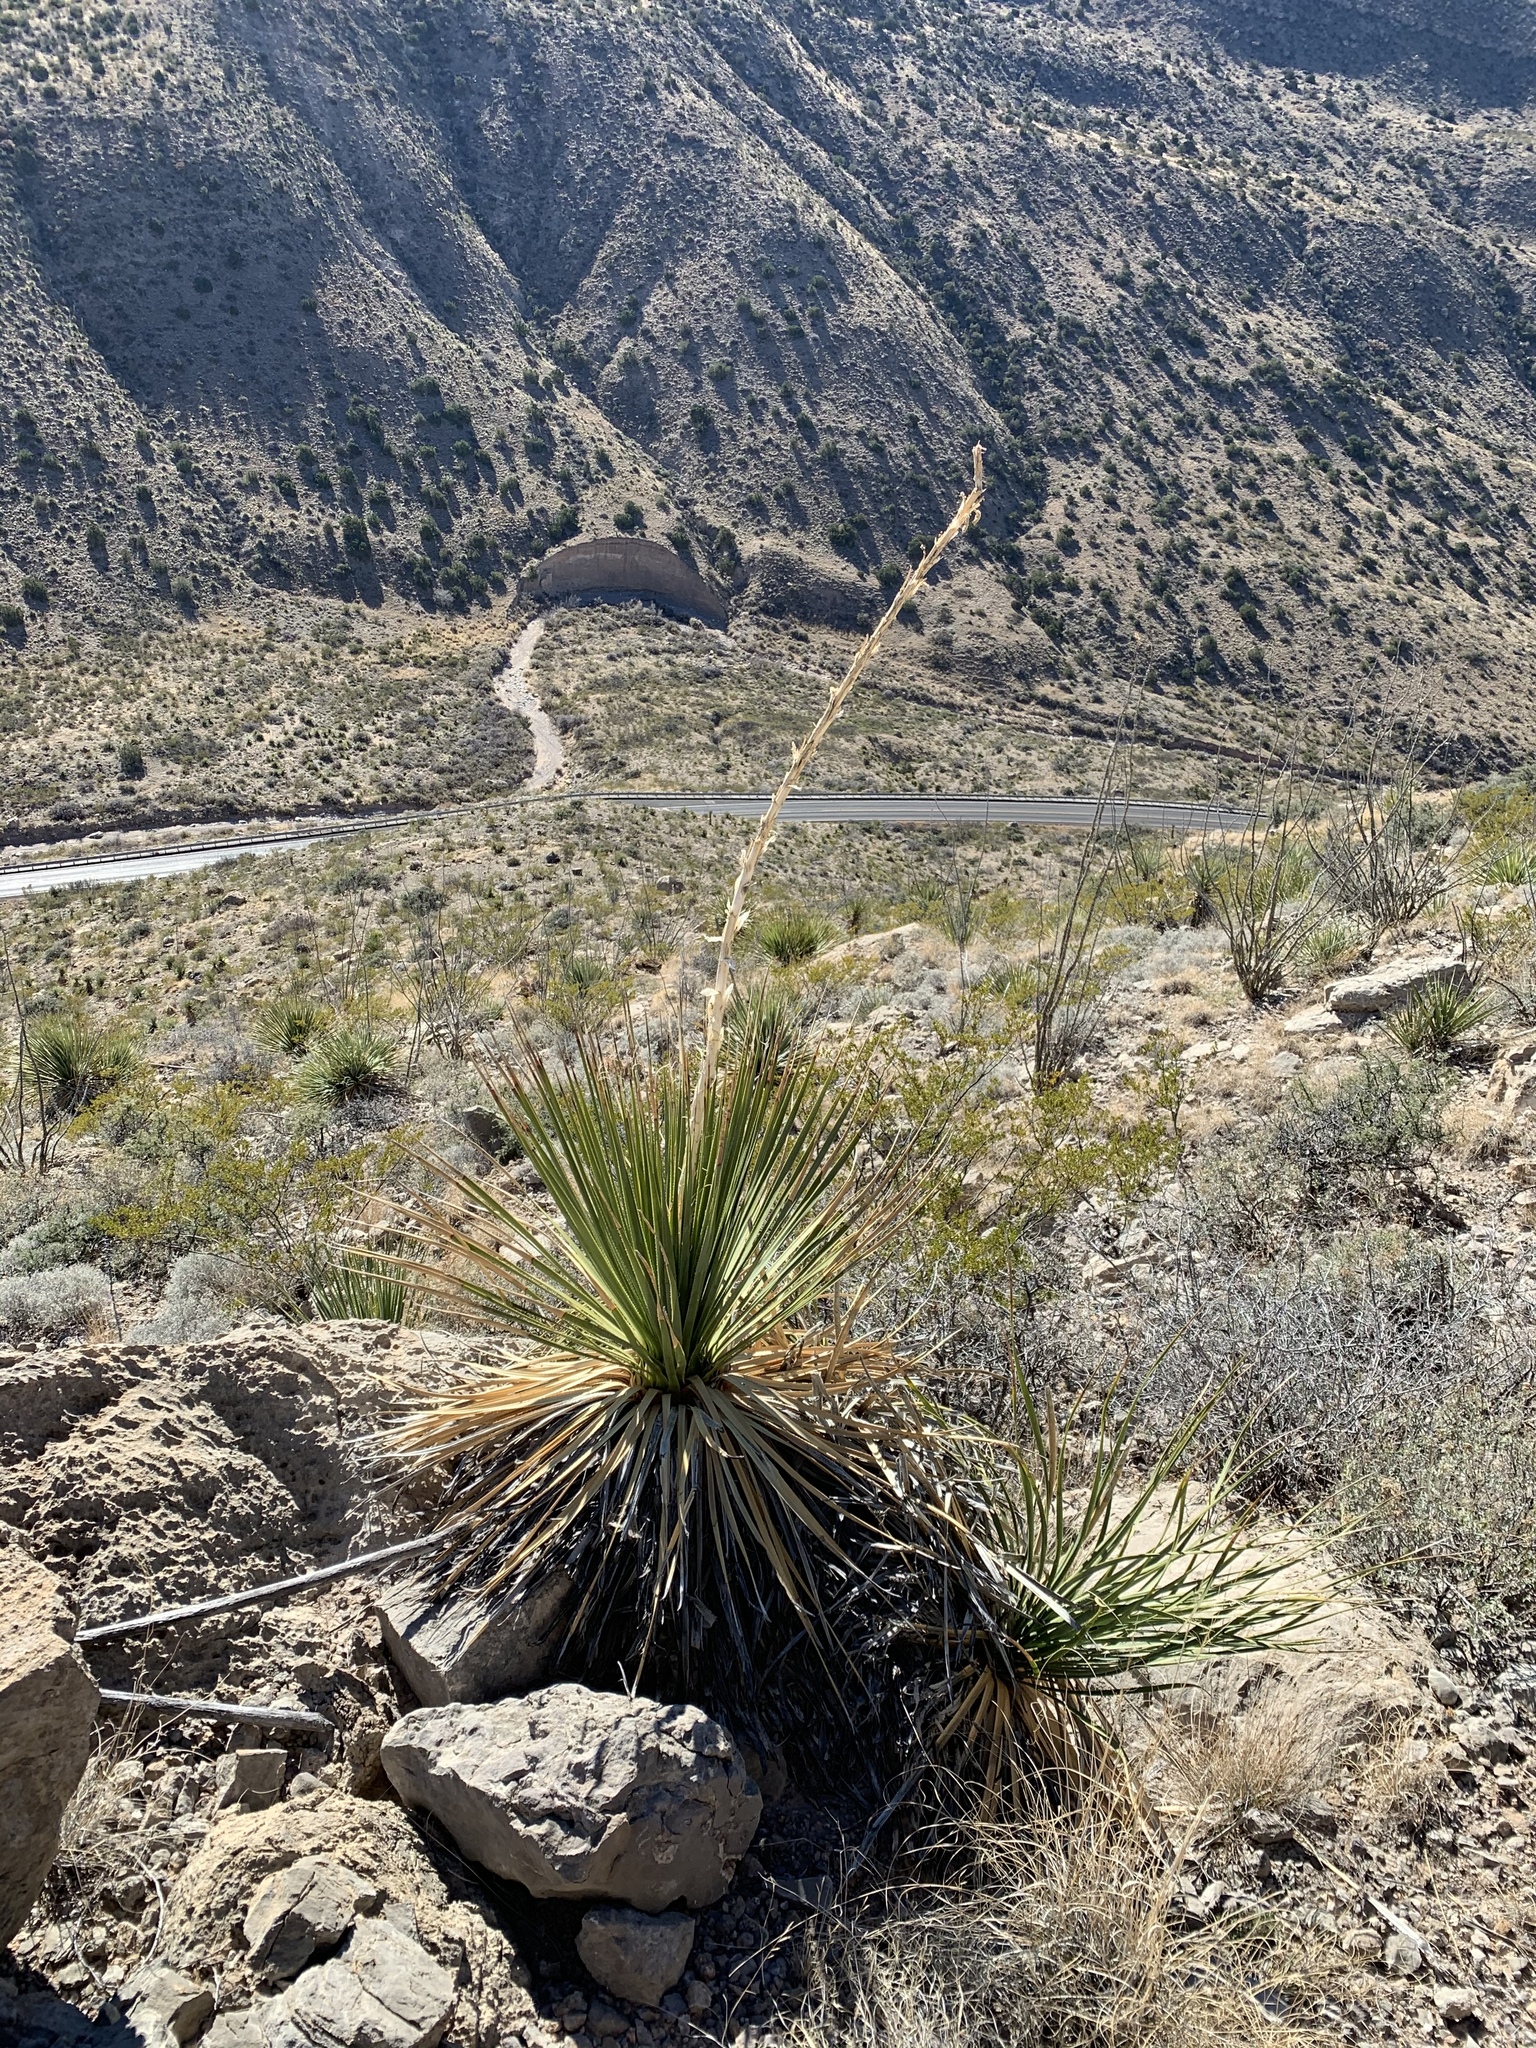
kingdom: Plantae
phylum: Tracheophyta
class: Liliopsida
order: Asparagales
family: Asparagaceae
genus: Dasylirion
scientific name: Dasylirion wheeleri
